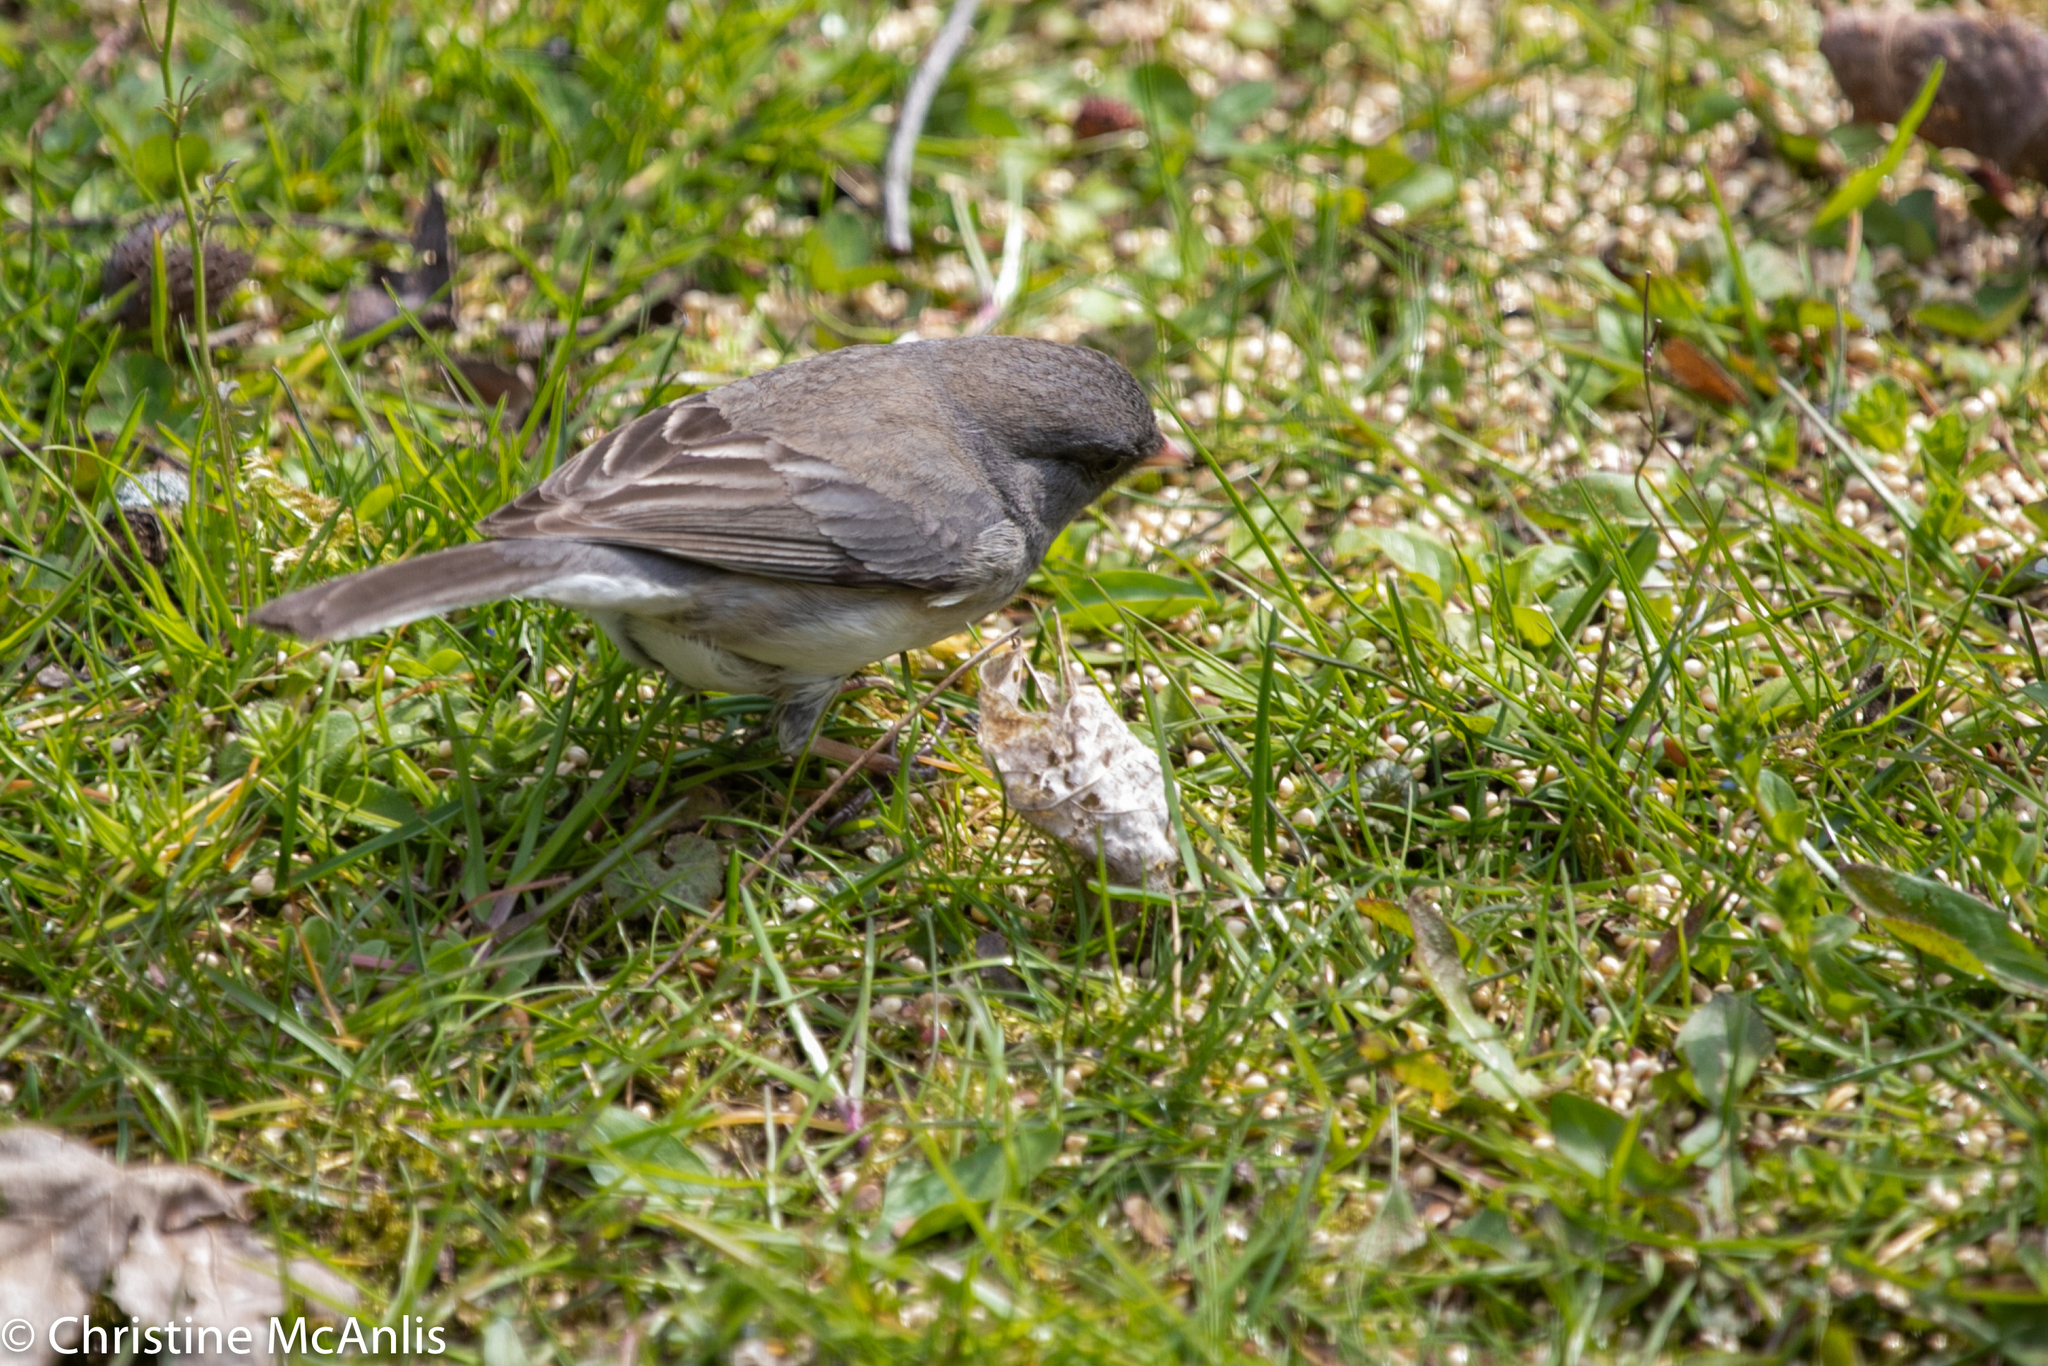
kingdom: Animalia
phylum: Chordata
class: Aves
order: Passeriformes
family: Passerellidae
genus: Junco
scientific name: Junco hyemalis
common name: Dark-eyed junco
